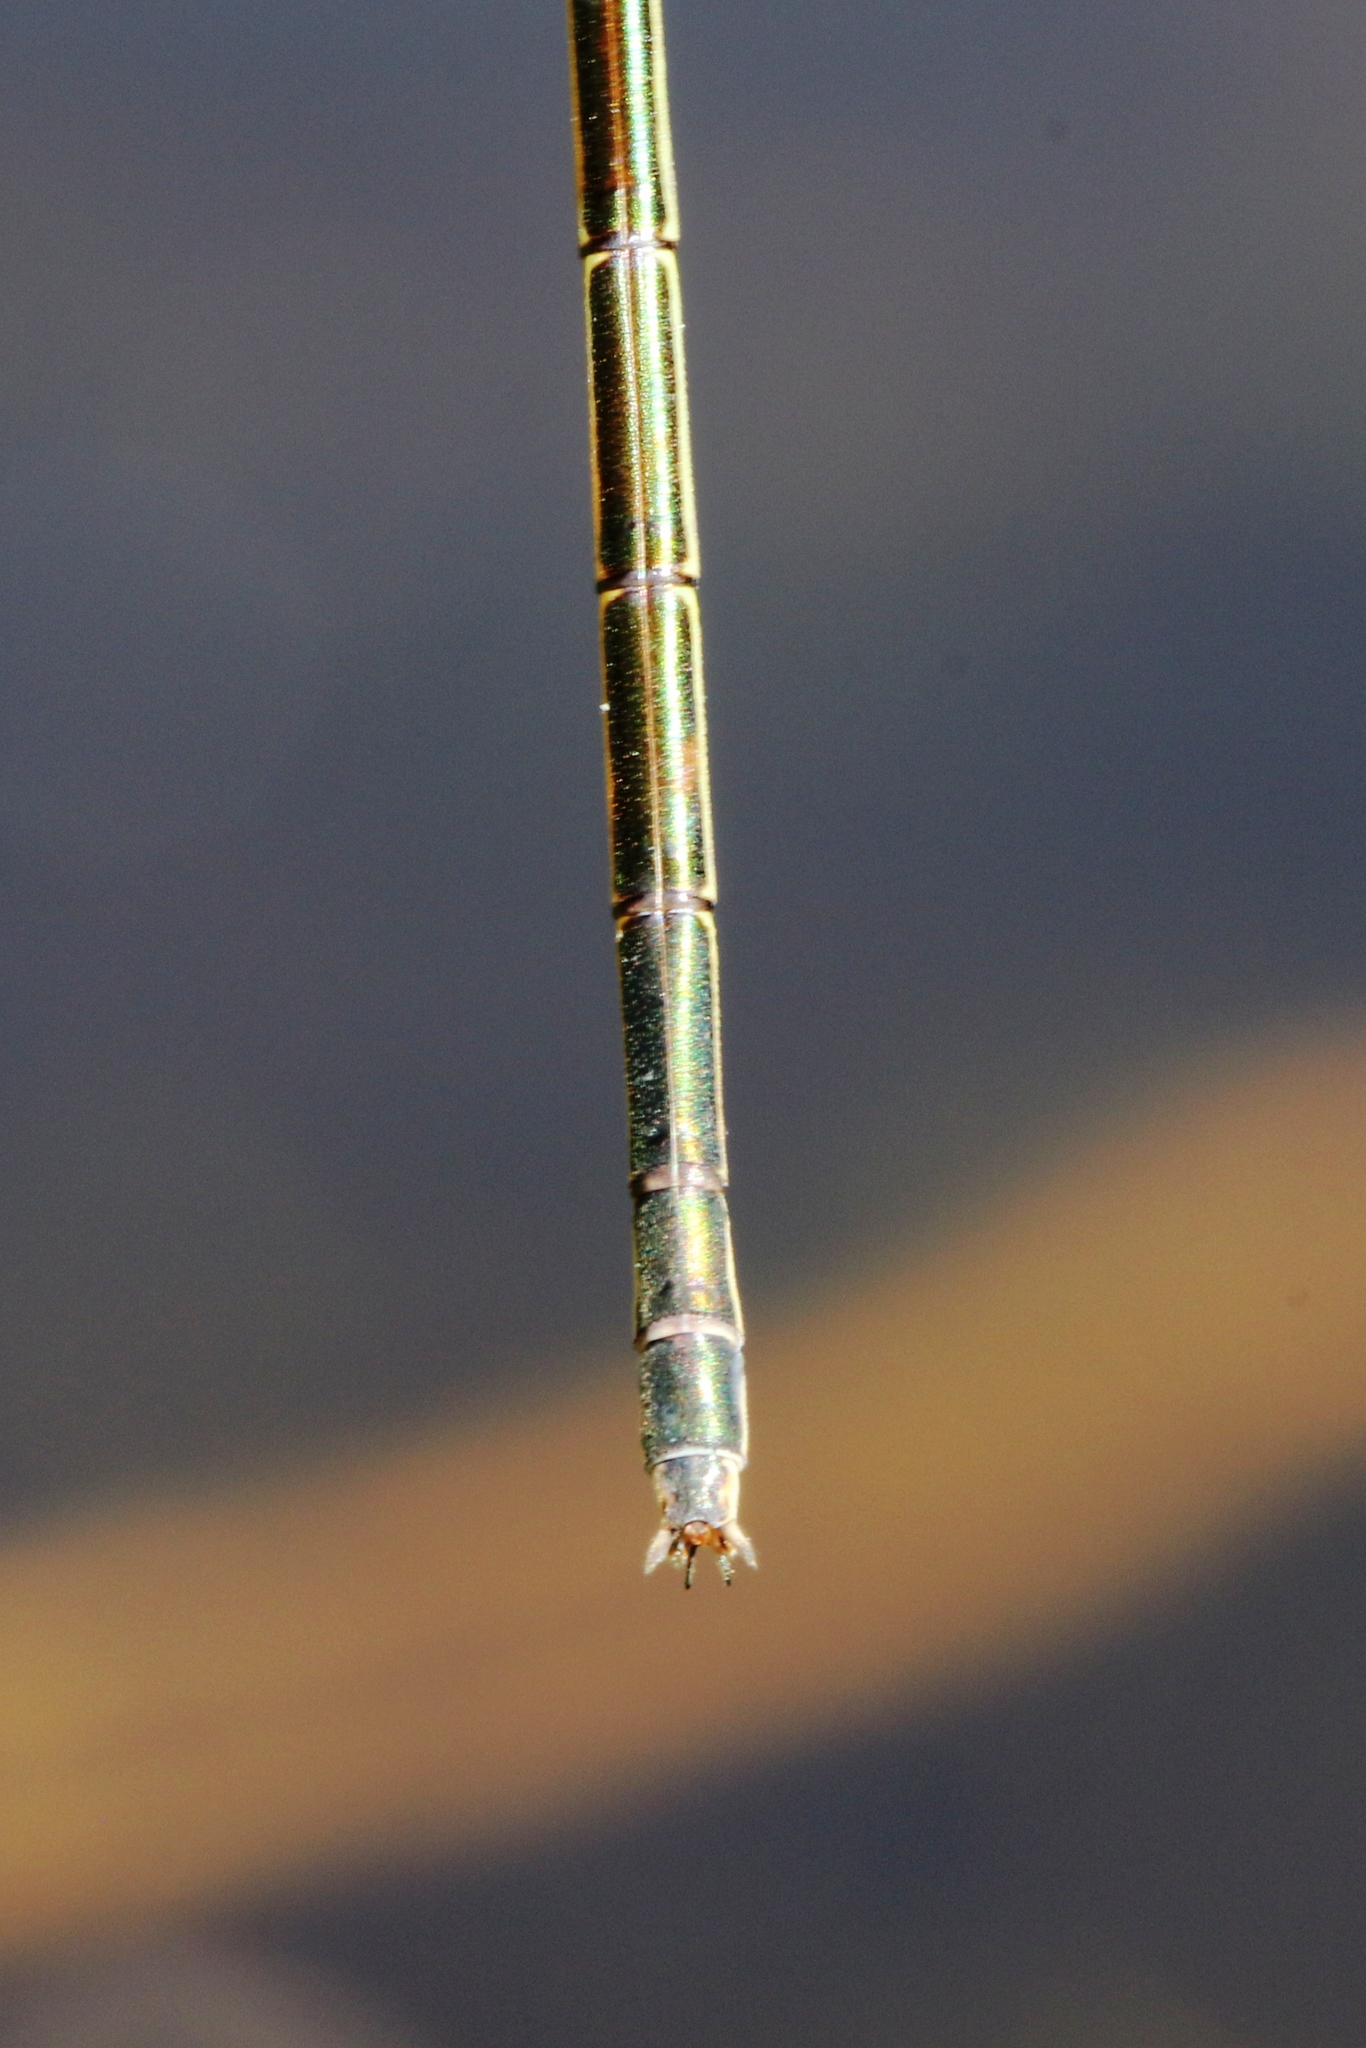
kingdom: Animalia
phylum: Arthropoda
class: Insecta
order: Odonata
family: Lestidae
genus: Lestes
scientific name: Lestes inaequalis
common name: Elegant spreadwing
